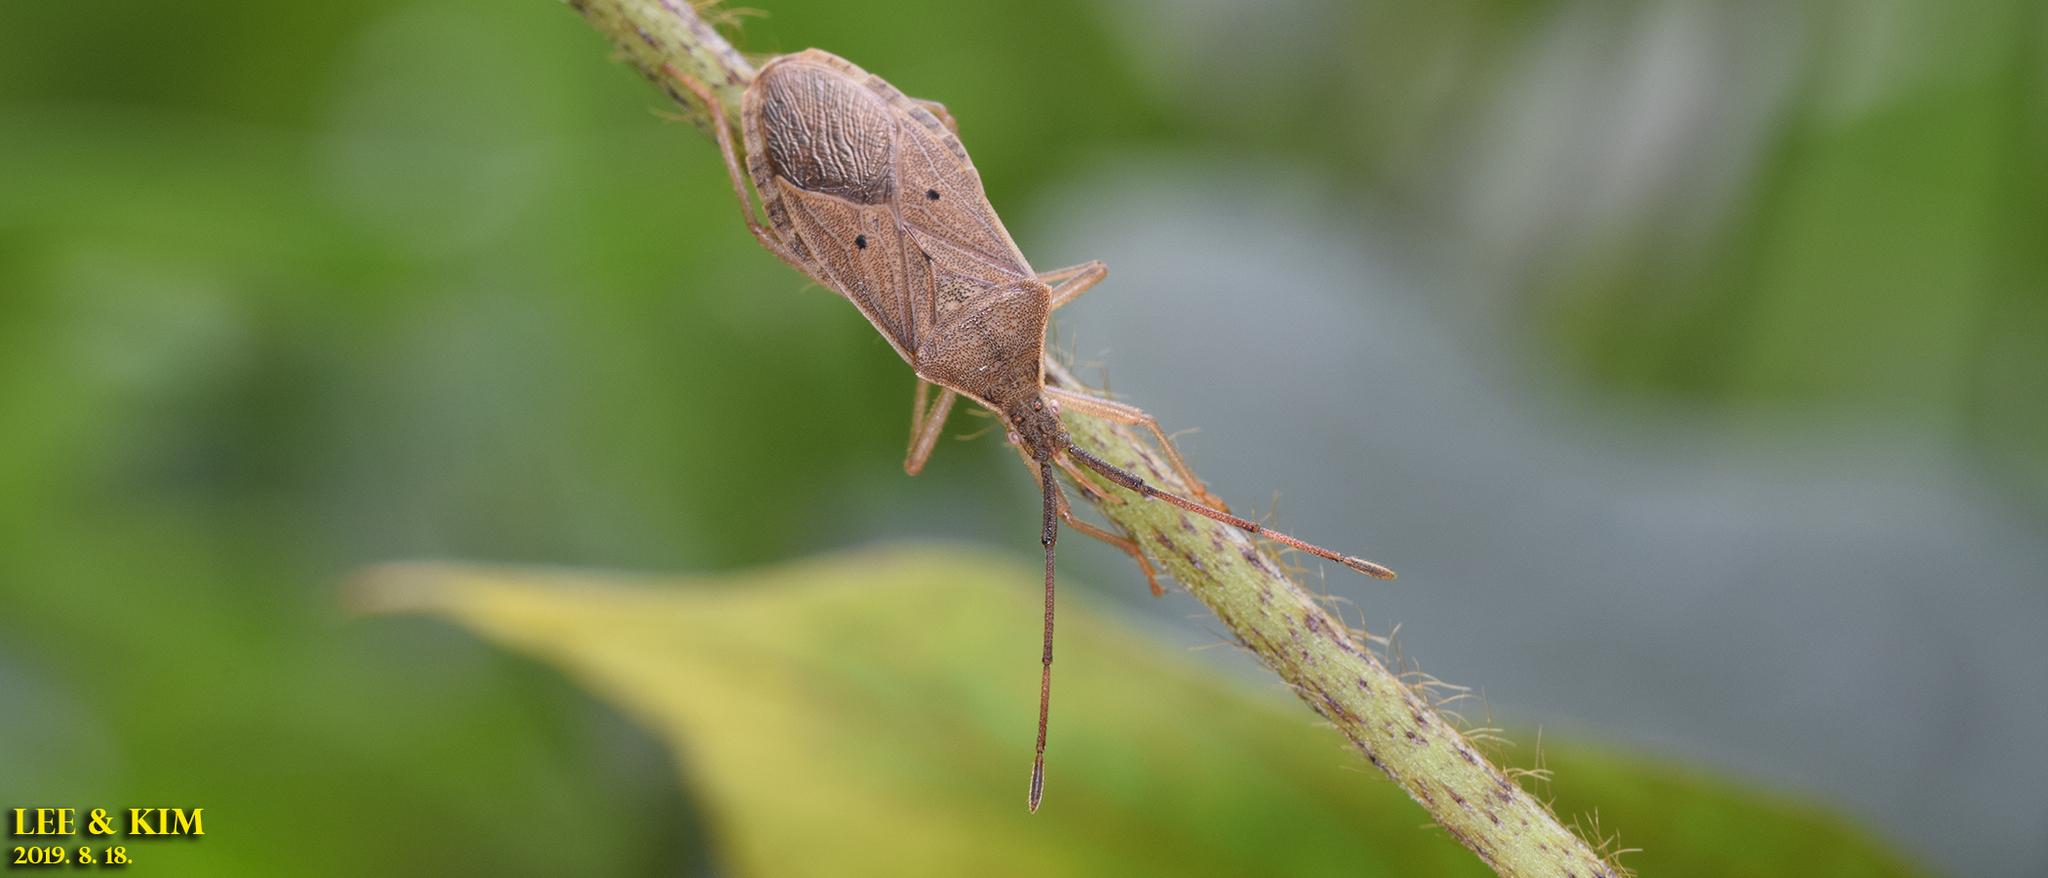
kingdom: Animalia
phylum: Arthropoda
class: Insecta
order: Hemiptera
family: Coreidae
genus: Homoeocerus
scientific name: Homoeocerus unipunctatus
